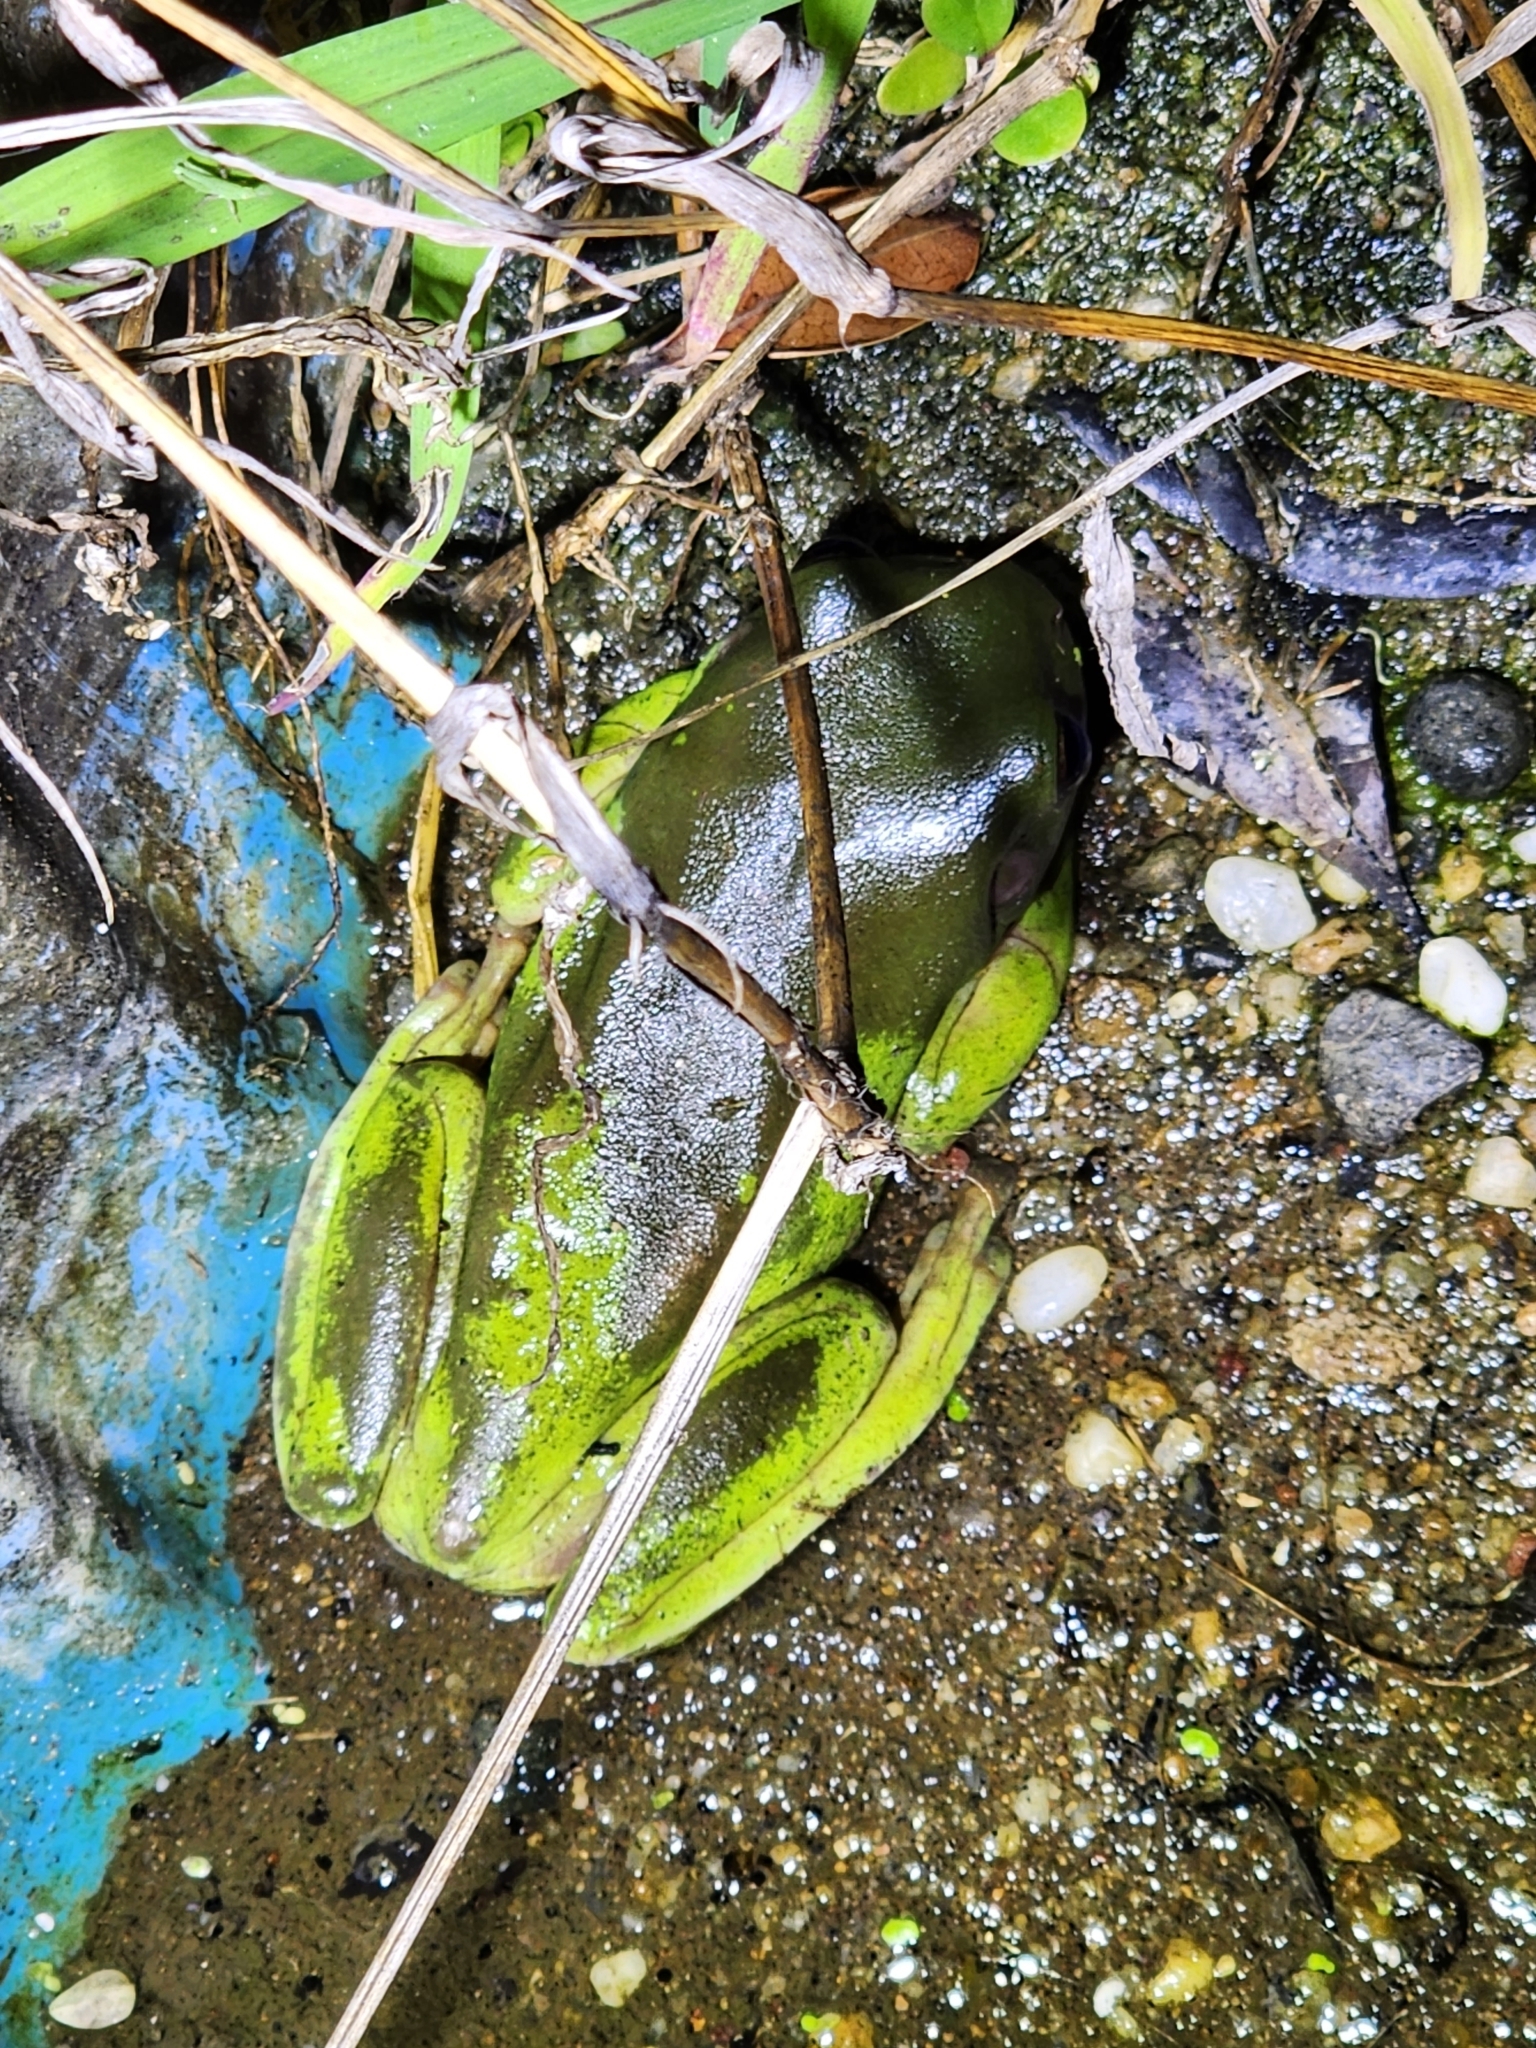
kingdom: Animalia
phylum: Chordata
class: Amphibia
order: Anura
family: Pelodryadidae
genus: Ranoidea
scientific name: Ranoidea caerulea
